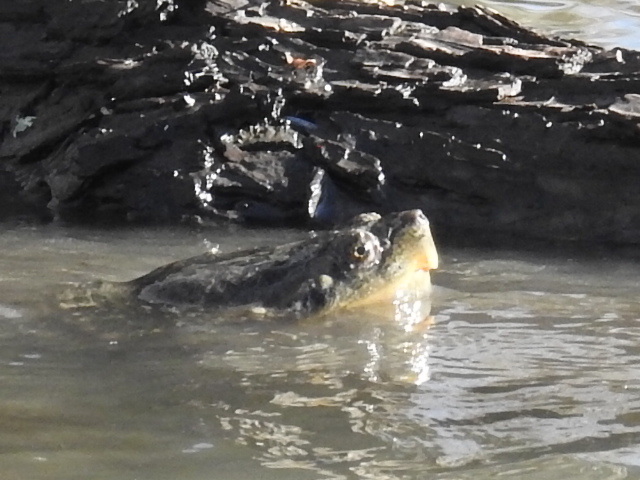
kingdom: Animalia
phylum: Chordata
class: Testudines
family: Chelydridae
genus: Chelydra
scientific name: Chelydra serpentina
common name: Common snapping turtle
